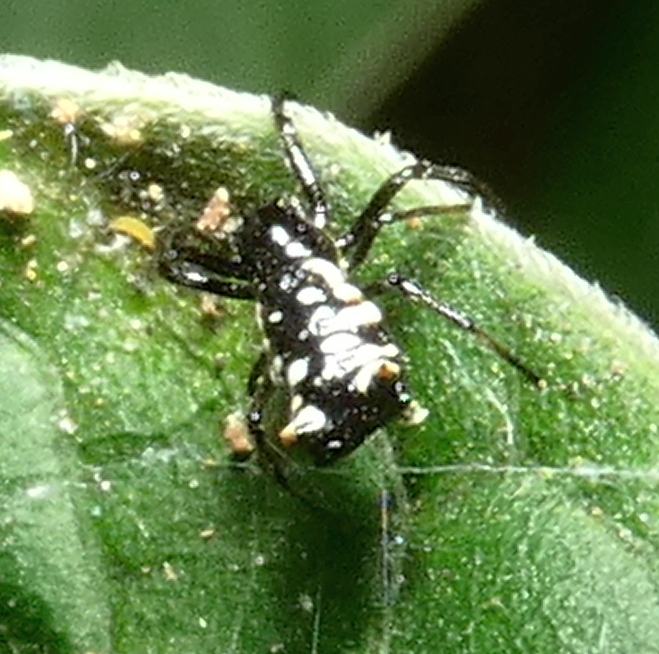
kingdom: Animalia
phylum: Arthropoda
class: Arachnida
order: Araneae
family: Araneidae
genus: Micrathena
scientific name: Micrathena patruelis
